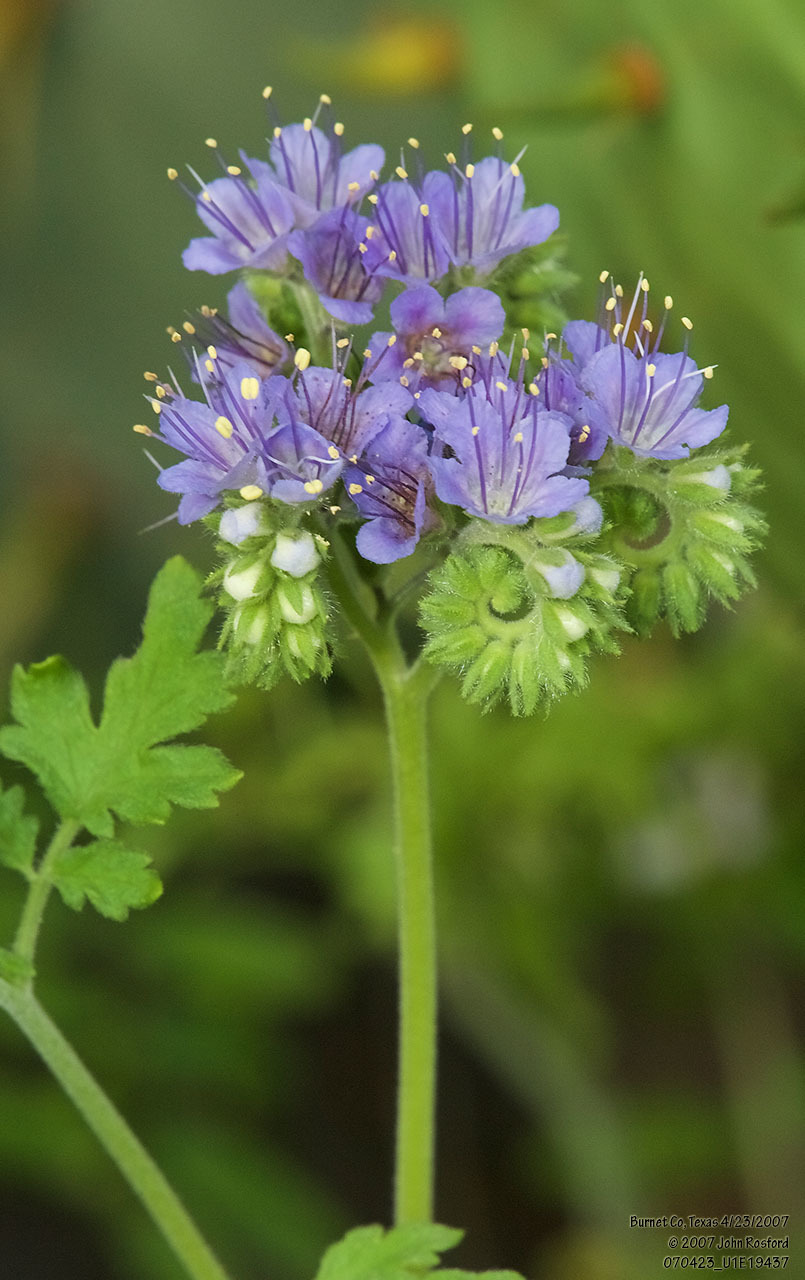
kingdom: Plantae
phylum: Tracheophyta
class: Magnoliopsida
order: Boraginales
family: Hydrophyllaceae
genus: Phacelia
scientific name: Phacelia congesta
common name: Blue curls
